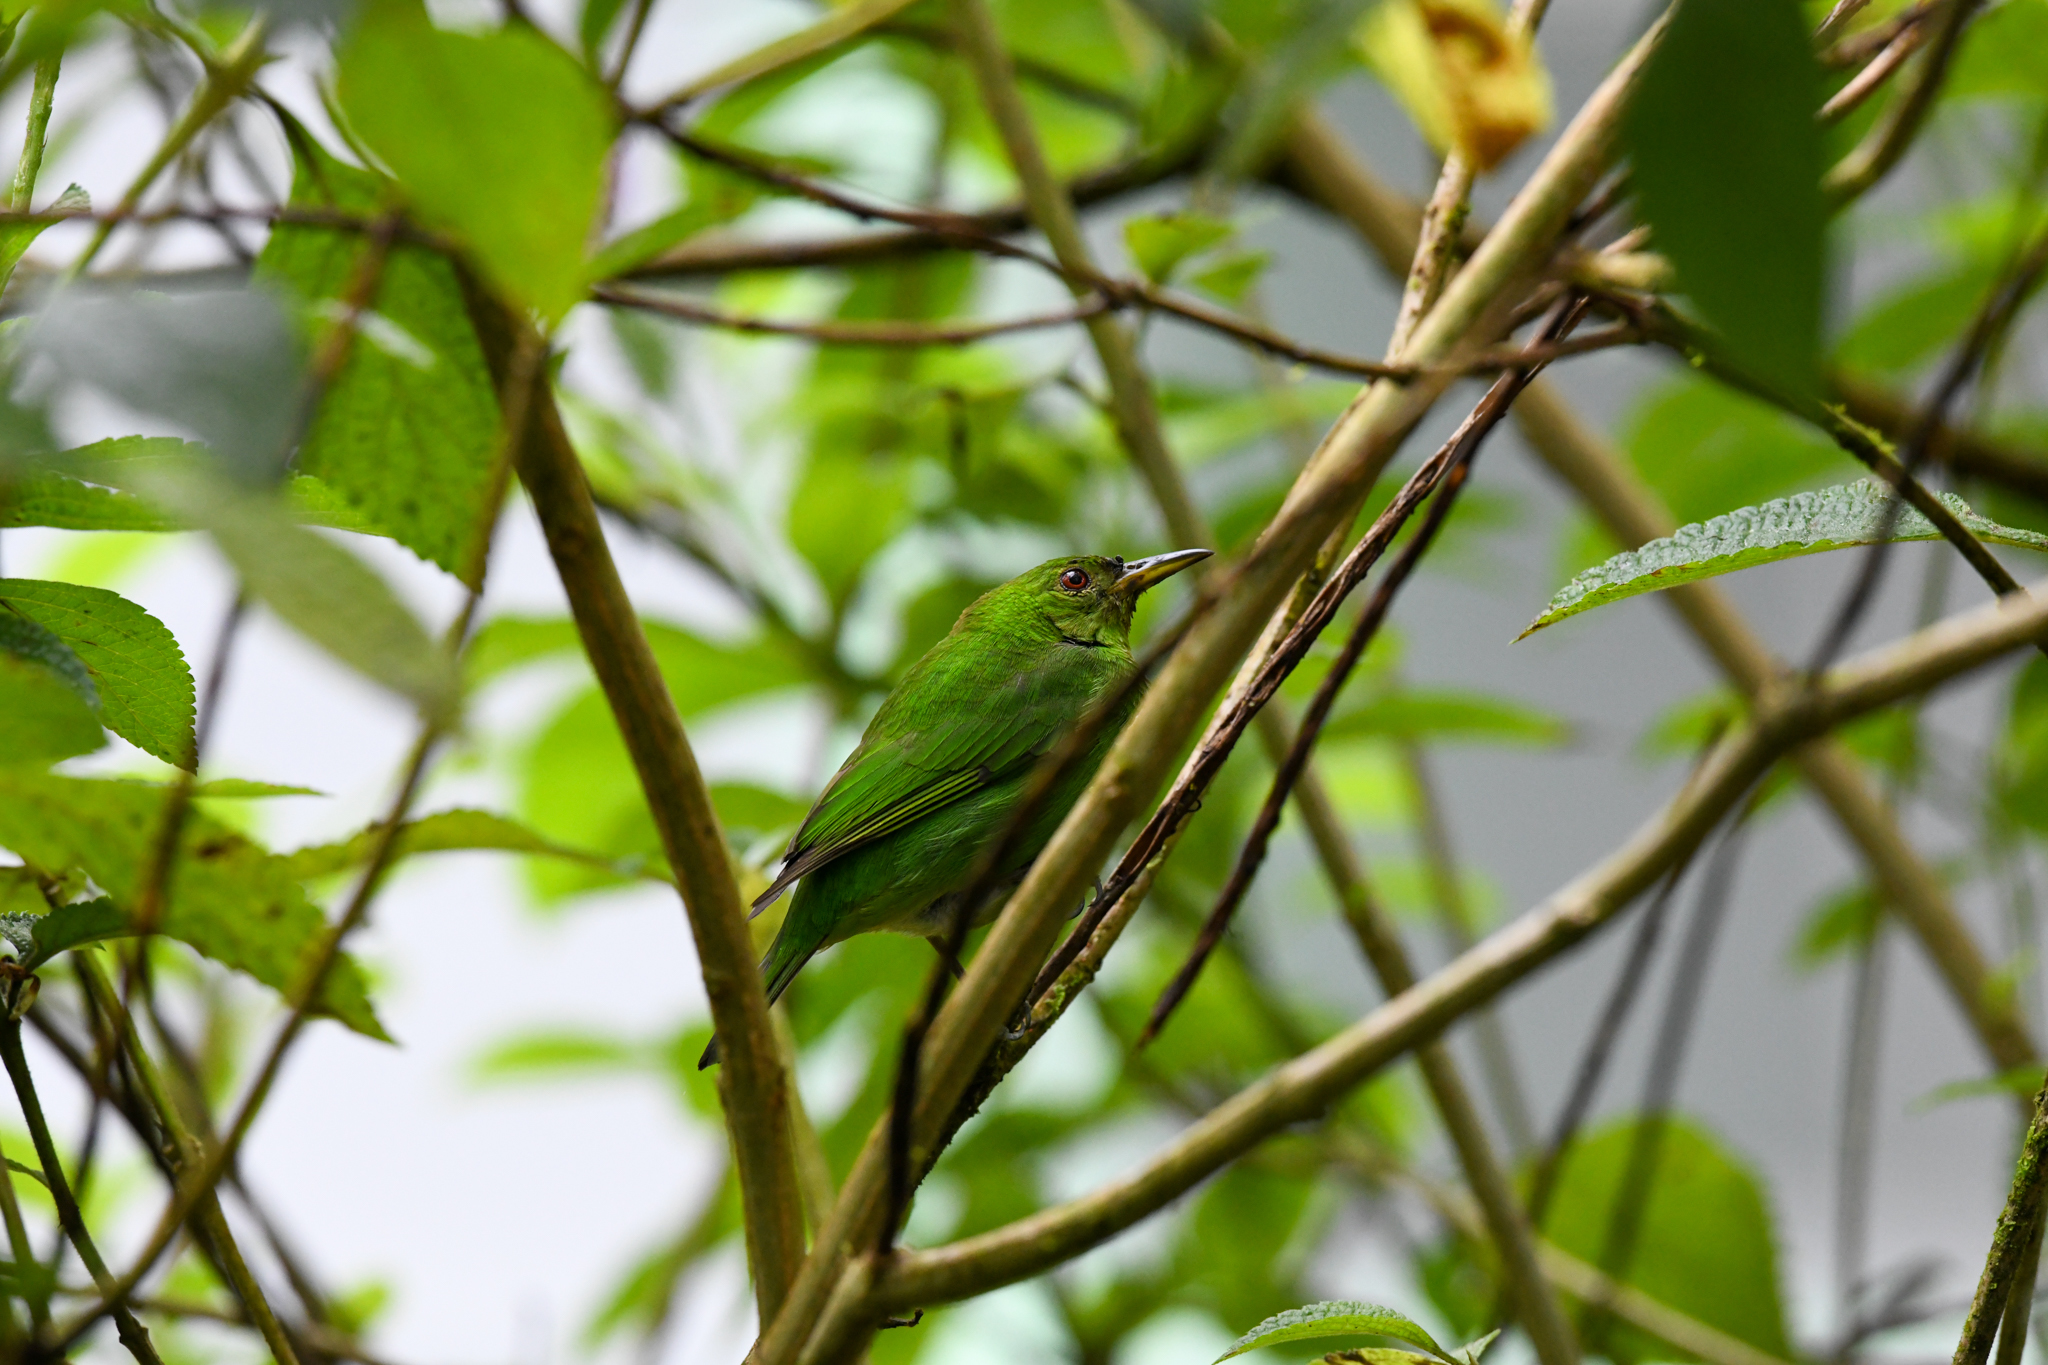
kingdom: Animalia
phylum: Chordata
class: Aves
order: Passeriformes
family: Thraupidae
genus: Chlorophanes
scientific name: Chlorophanes spiza
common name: Green honeycreeper
